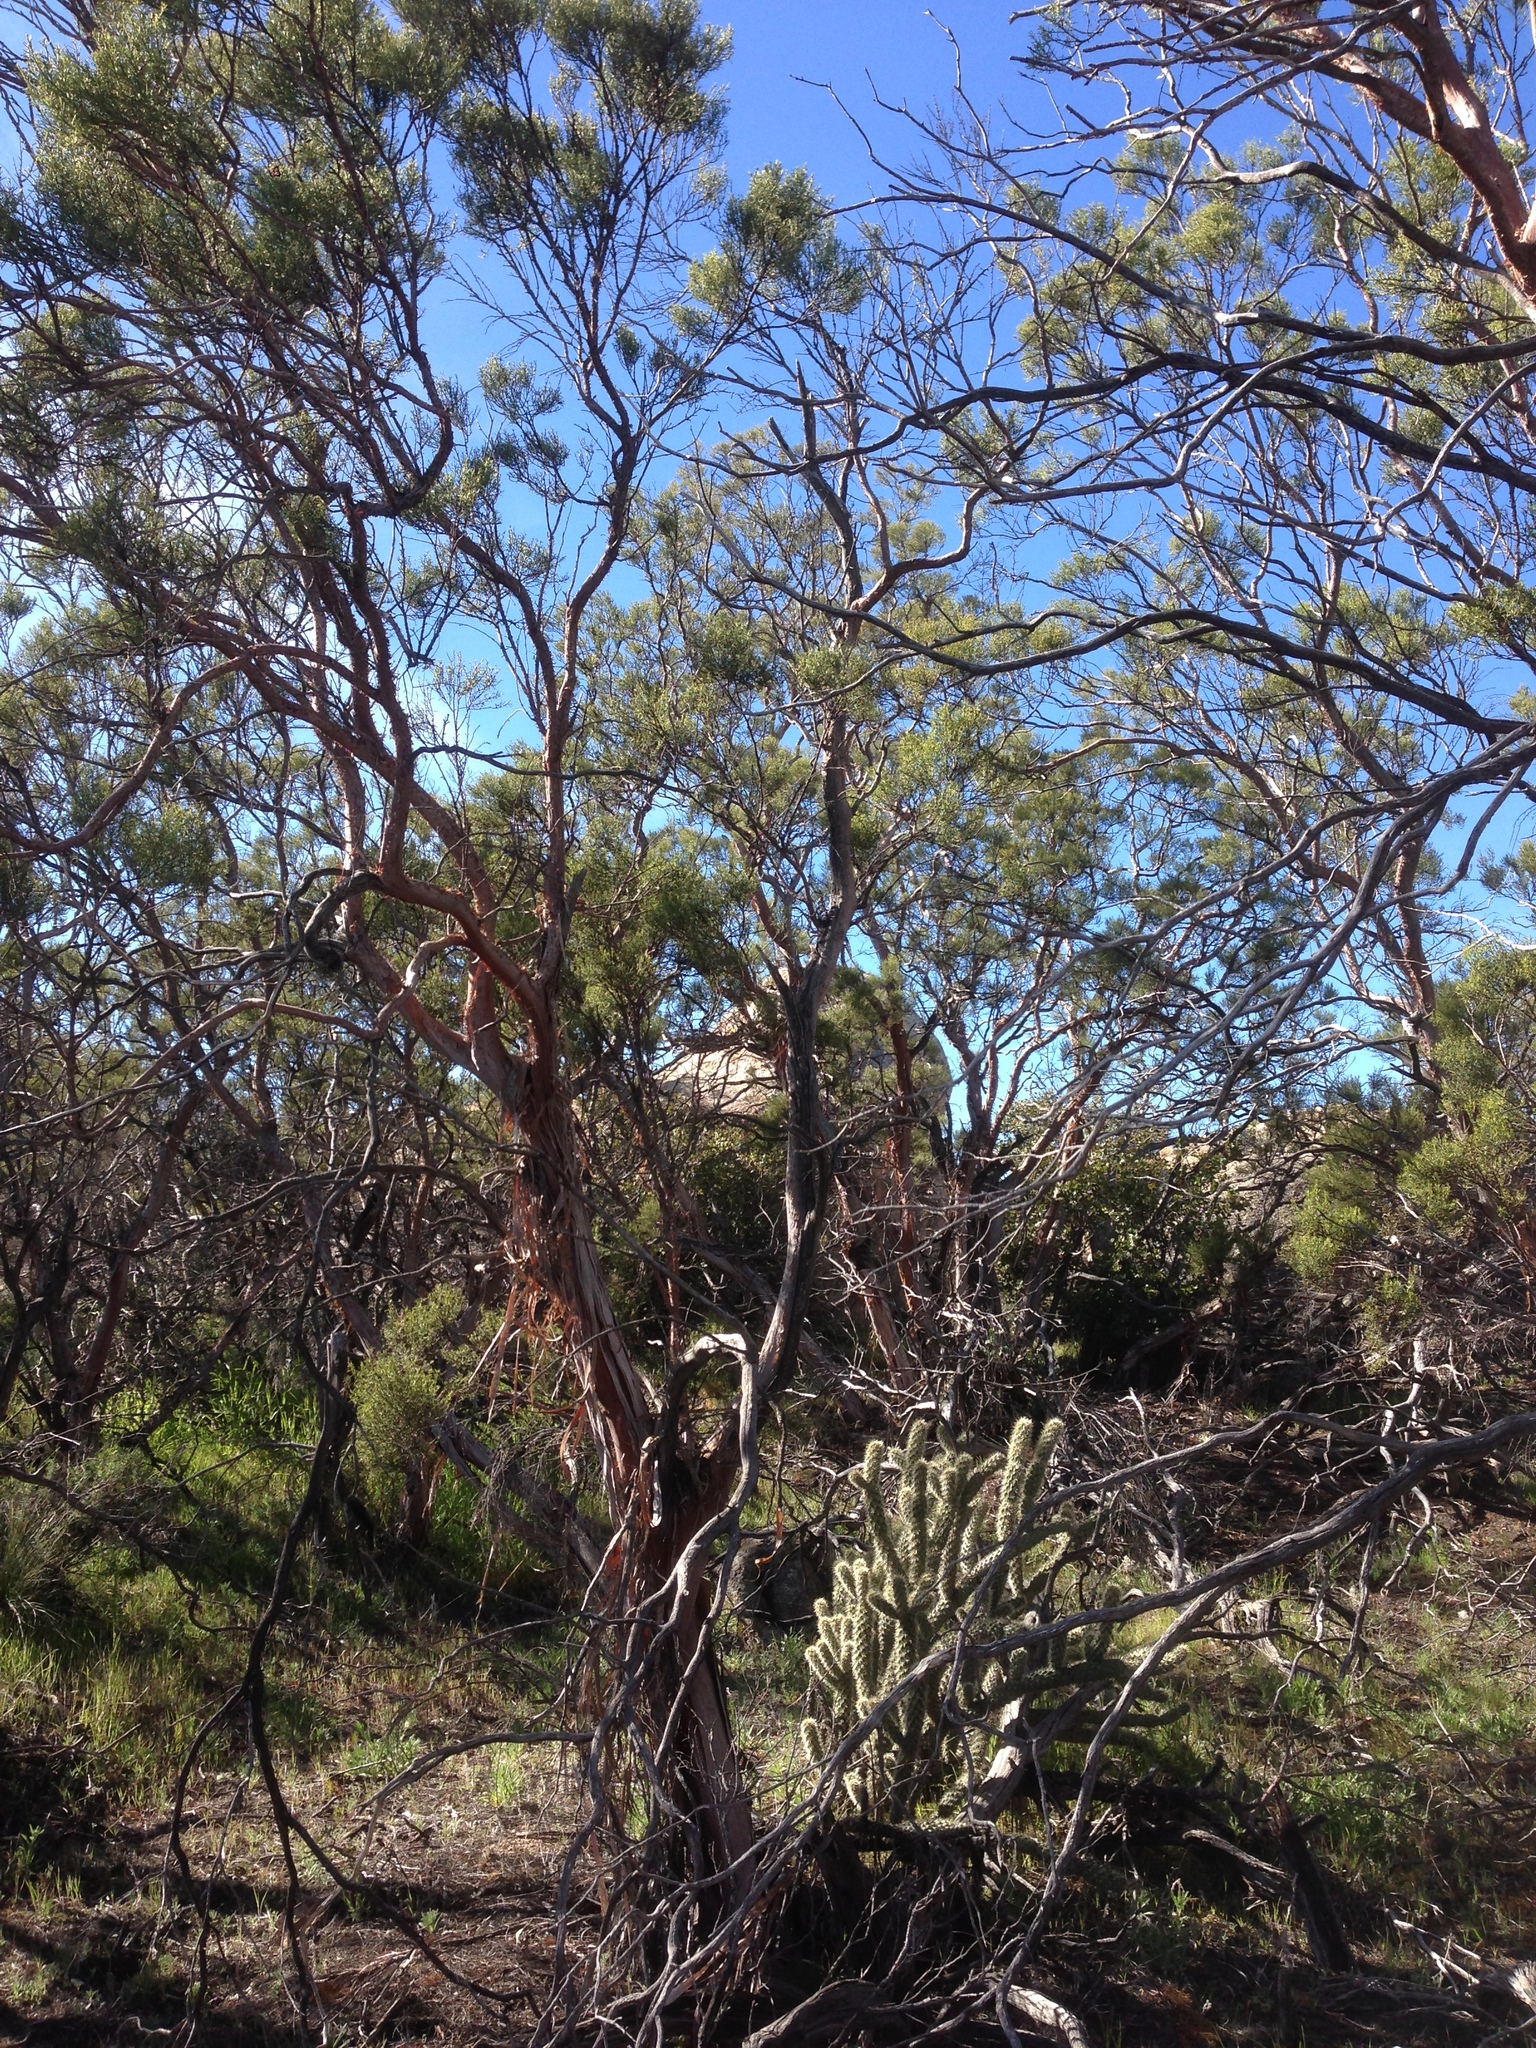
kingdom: Plantae
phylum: Tracheophyta
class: Magnoliopsida
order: Rosales
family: Rosaceae
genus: Adenostoma
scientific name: Adenostoma sparsifolium
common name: Red shank
